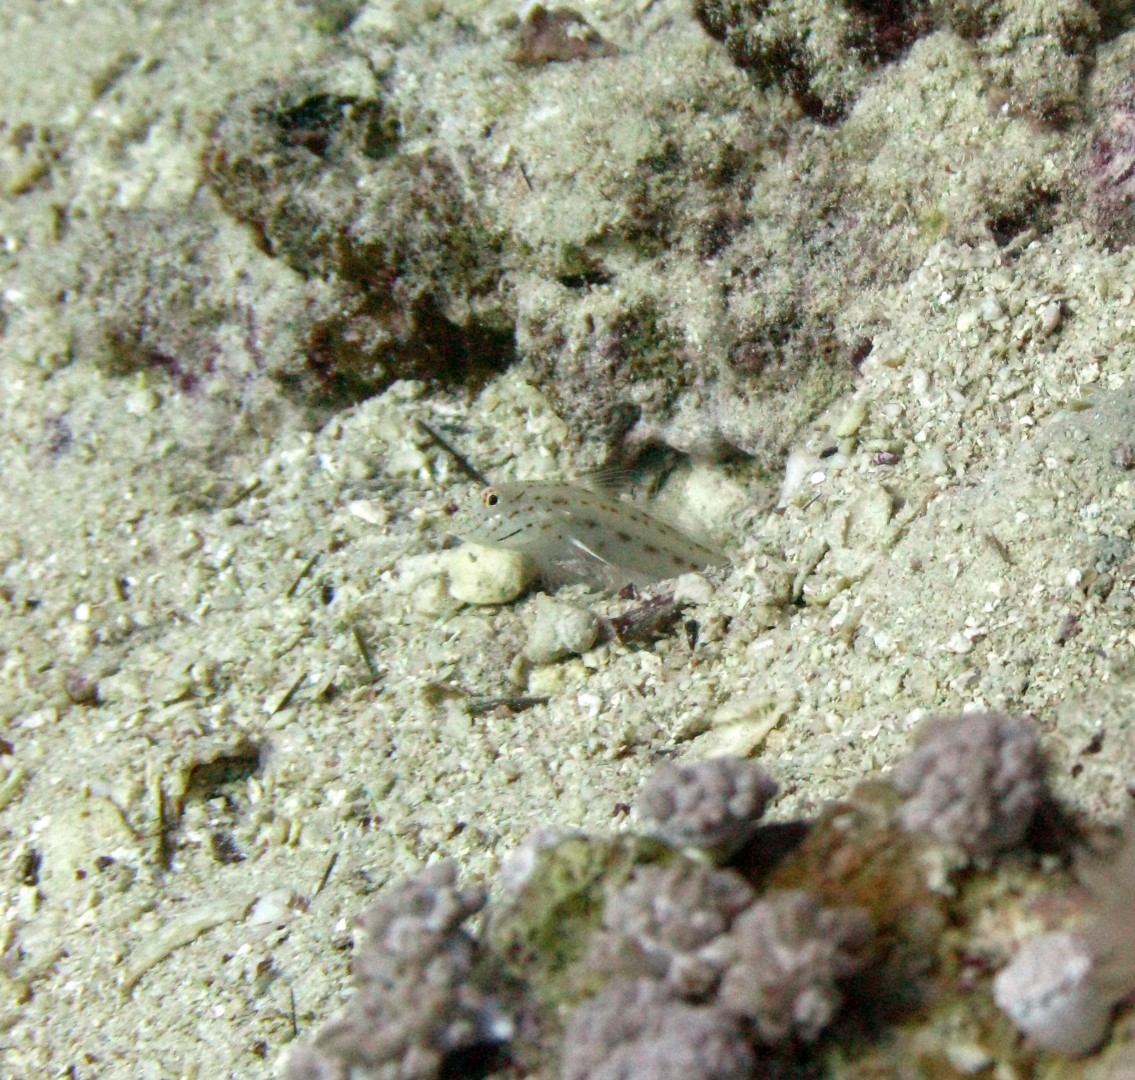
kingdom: Animalia
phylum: Chordata
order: Perciformes
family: Gobiidae
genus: Ctenogobiops
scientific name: Ctenogobiops crocineus
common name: Silverspot shrimpgoby
